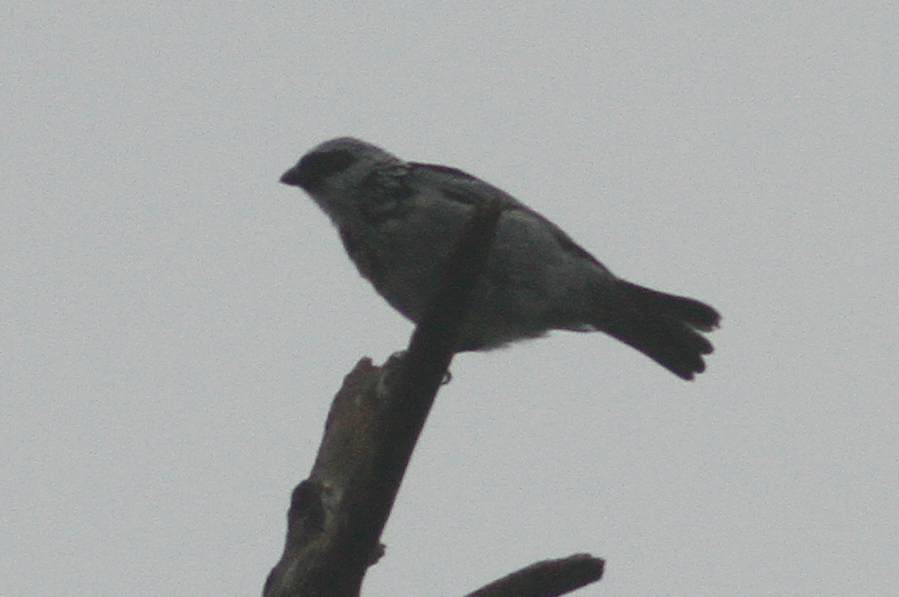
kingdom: Animalia
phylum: Chordata
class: Aves
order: Passeriformes
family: Thraupidae
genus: Poecilostreptus
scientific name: Poecilostreptus palmeri
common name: Grey-and-gold tanager
